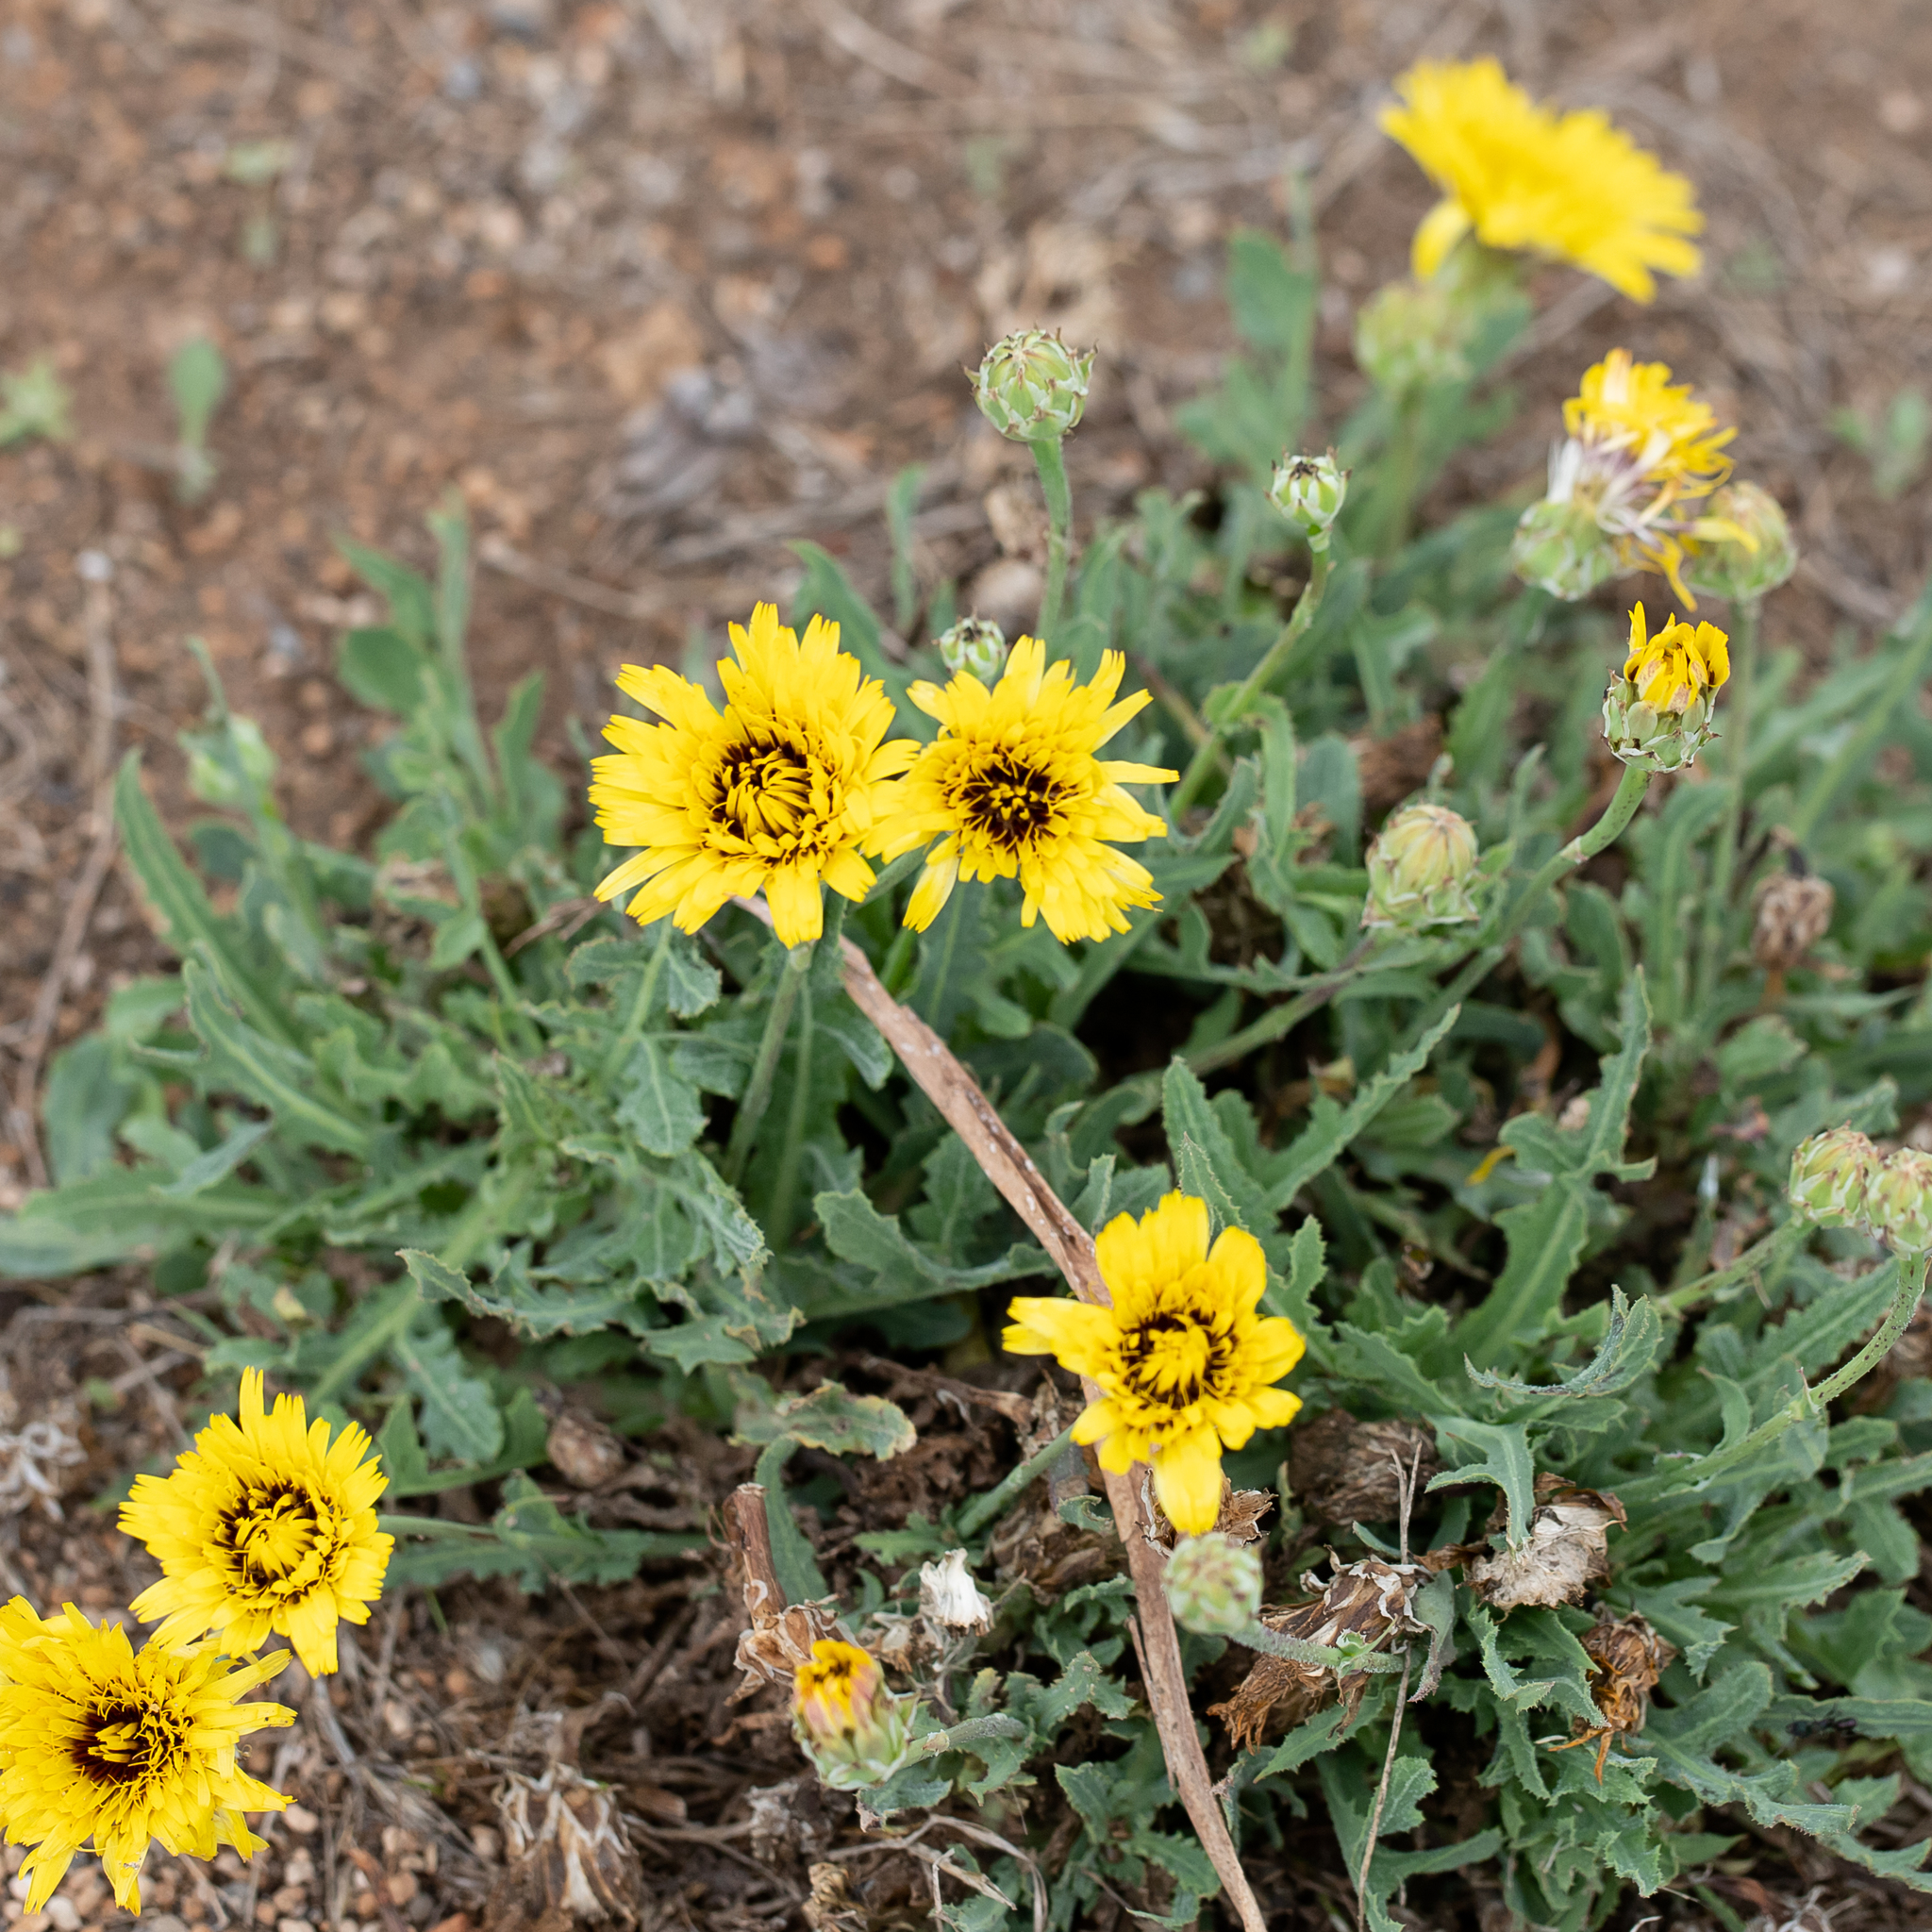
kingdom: Plantae
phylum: Tracheophyta
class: Magnoliopsida
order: Asterales
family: Asteraceae
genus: Reichardia
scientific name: Reichardia tingitana
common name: Reichardia
